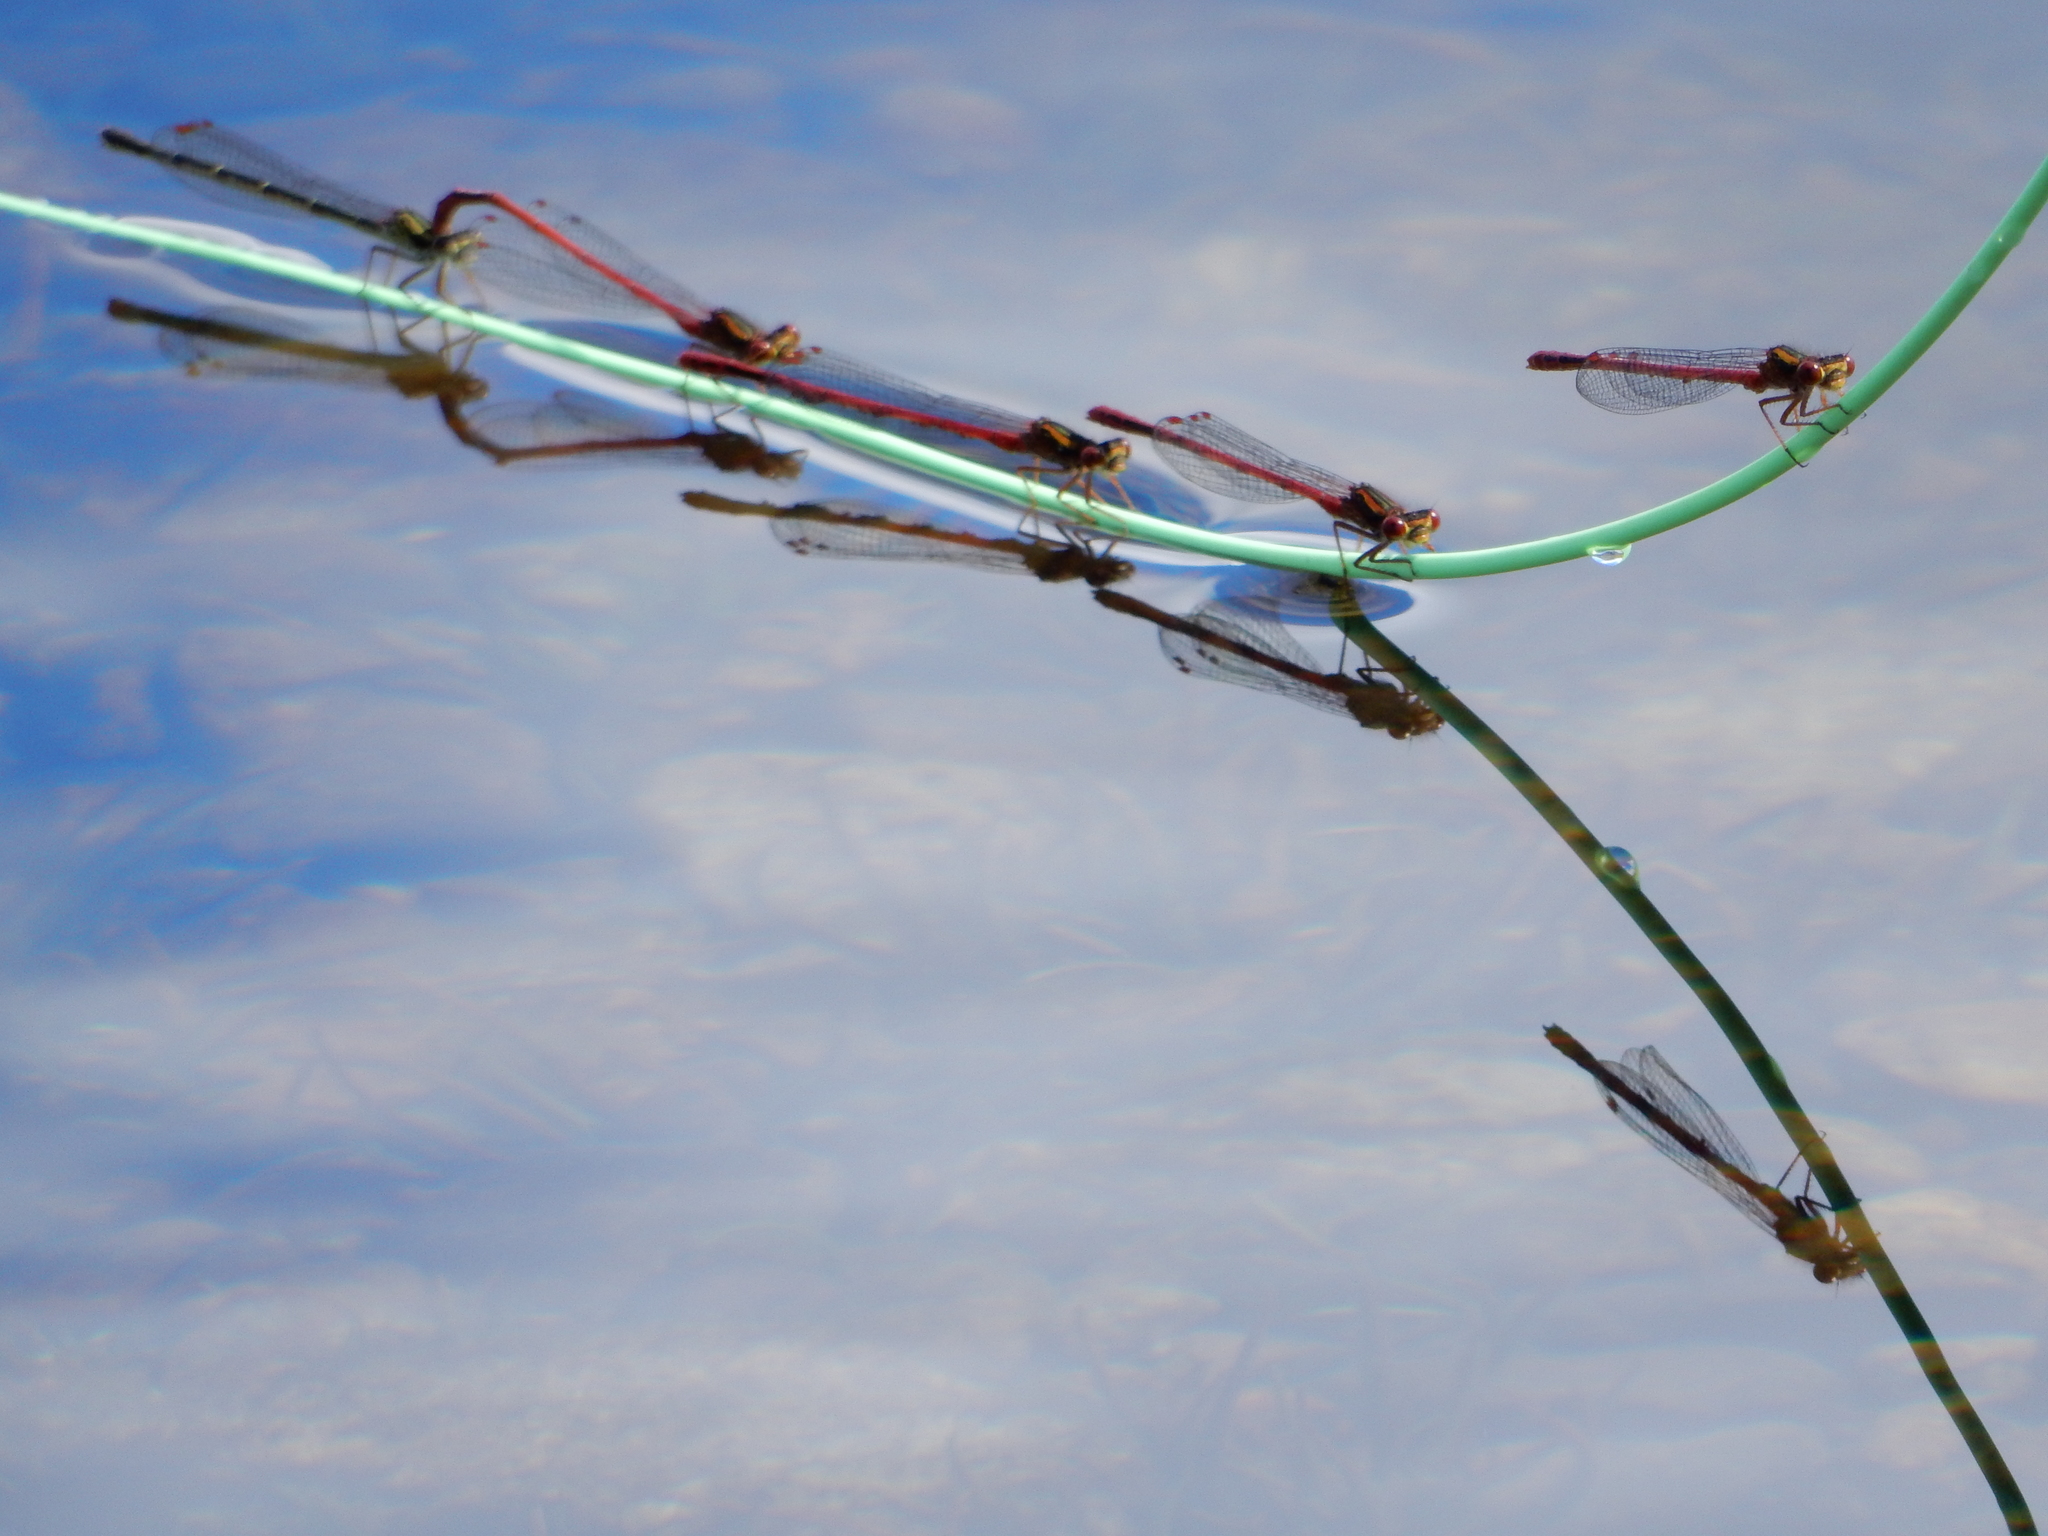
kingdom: Animalia
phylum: Arthropoda
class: Insecta
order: Odonata
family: Coenagrionidae
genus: Xanthocnemis
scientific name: Xanthocnemis zealandica
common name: Common redcoat damselfly
